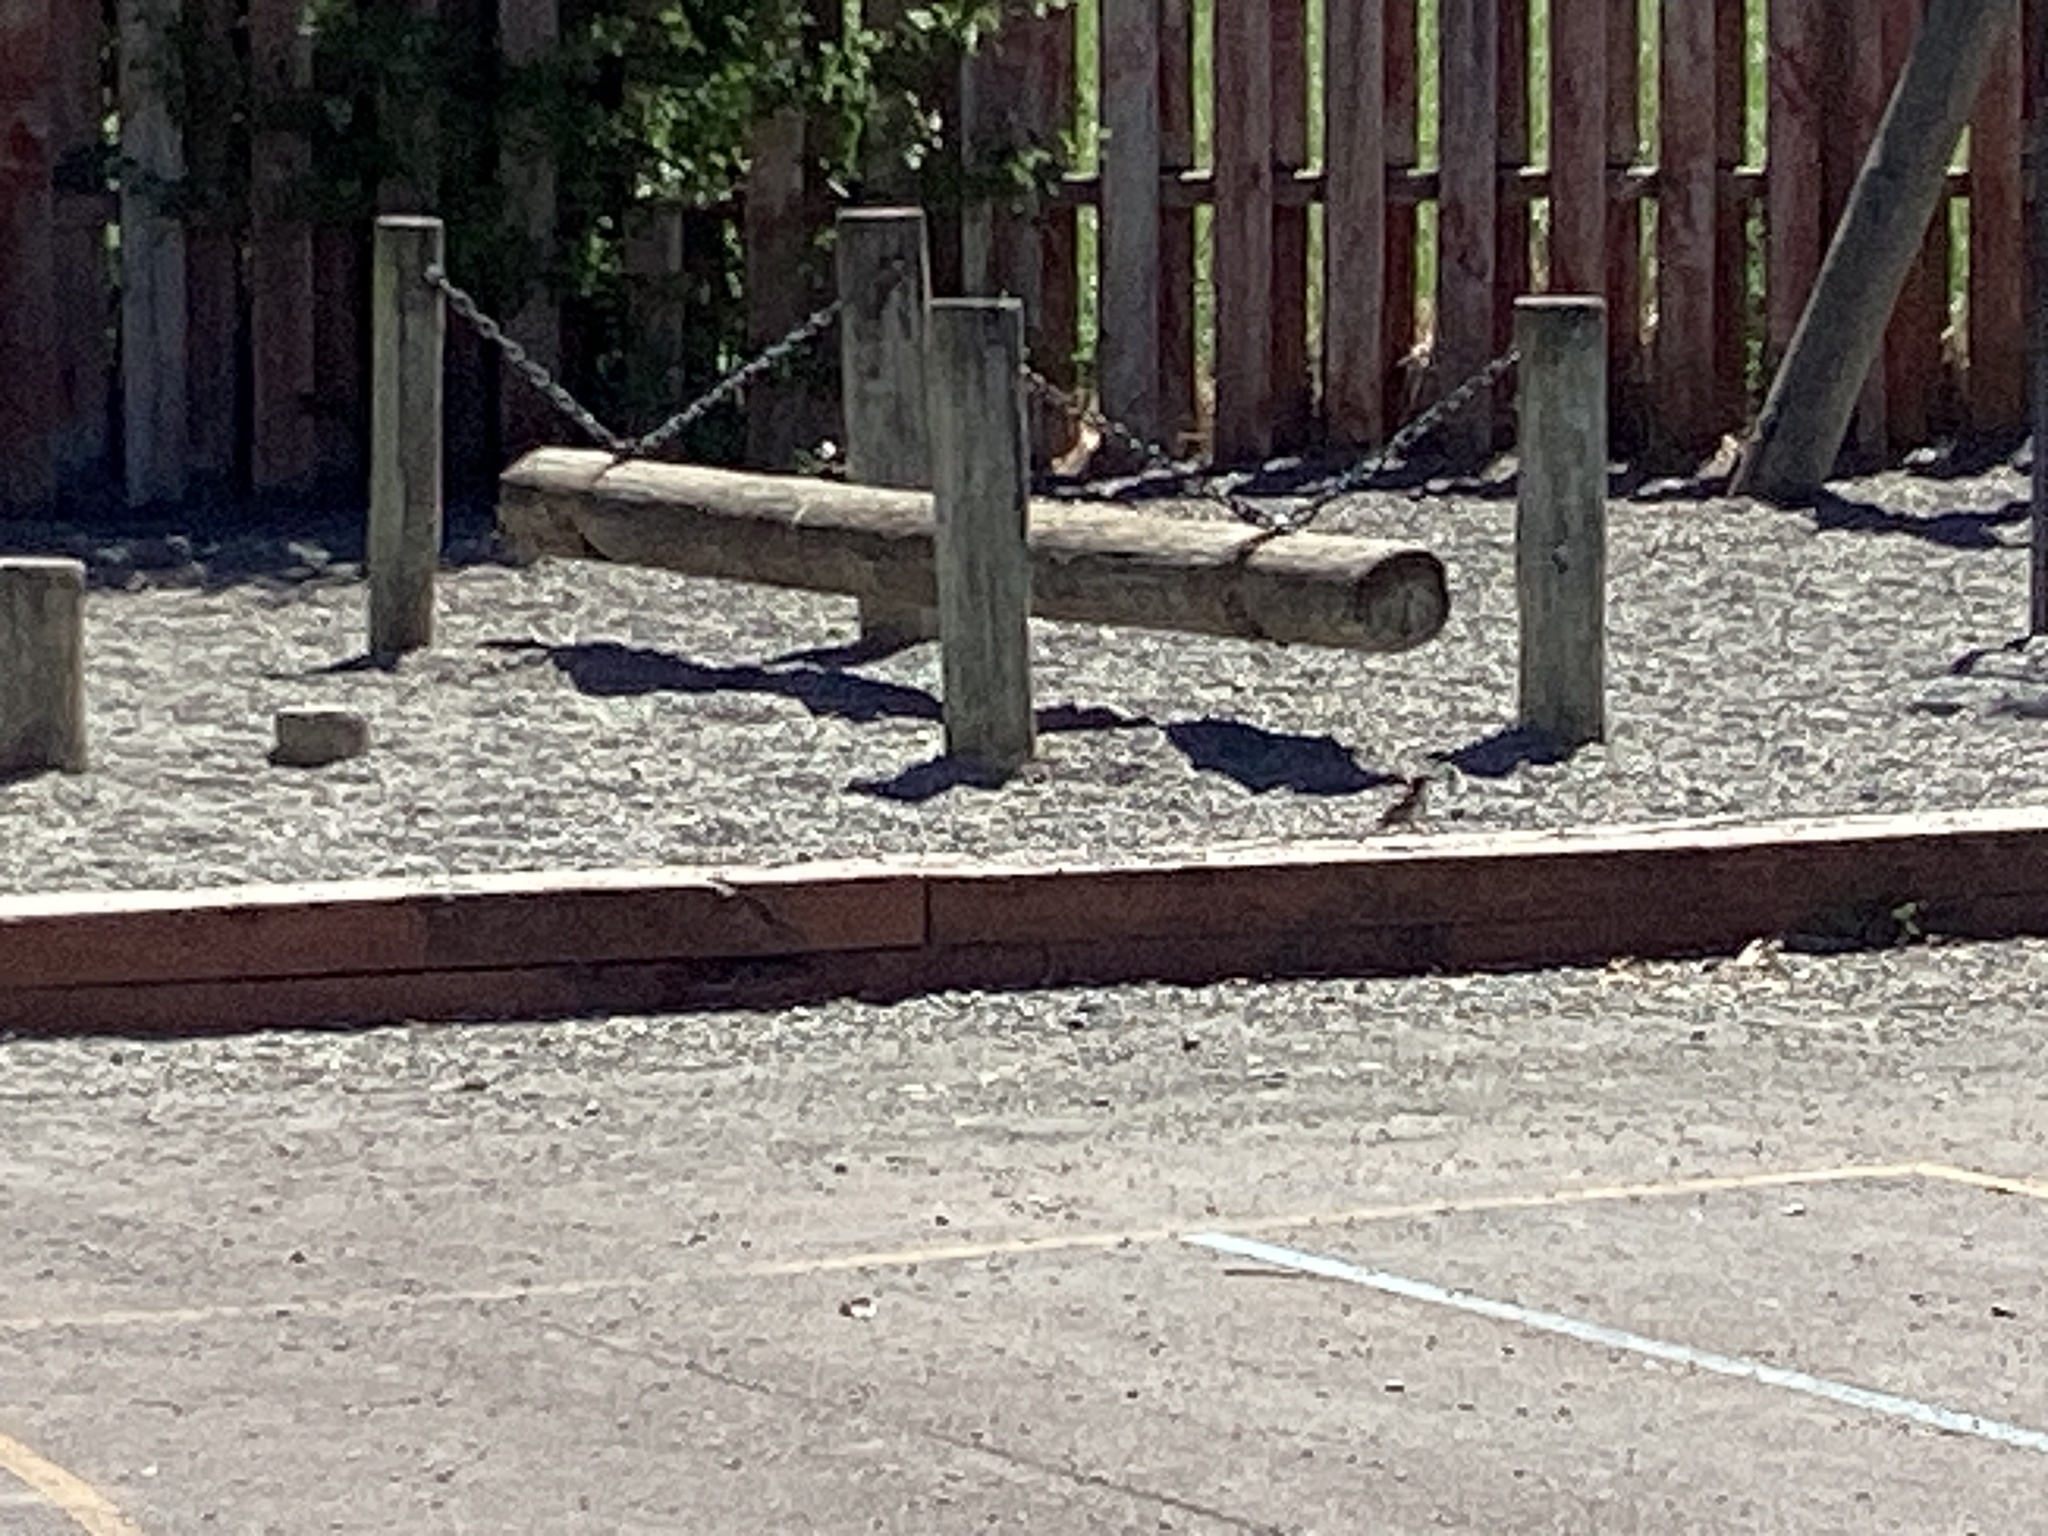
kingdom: Animalia
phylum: Chordata
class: Aves
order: Passeriformes
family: Passeridae
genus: Passer
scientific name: Passer domesticus
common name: House sparrow
